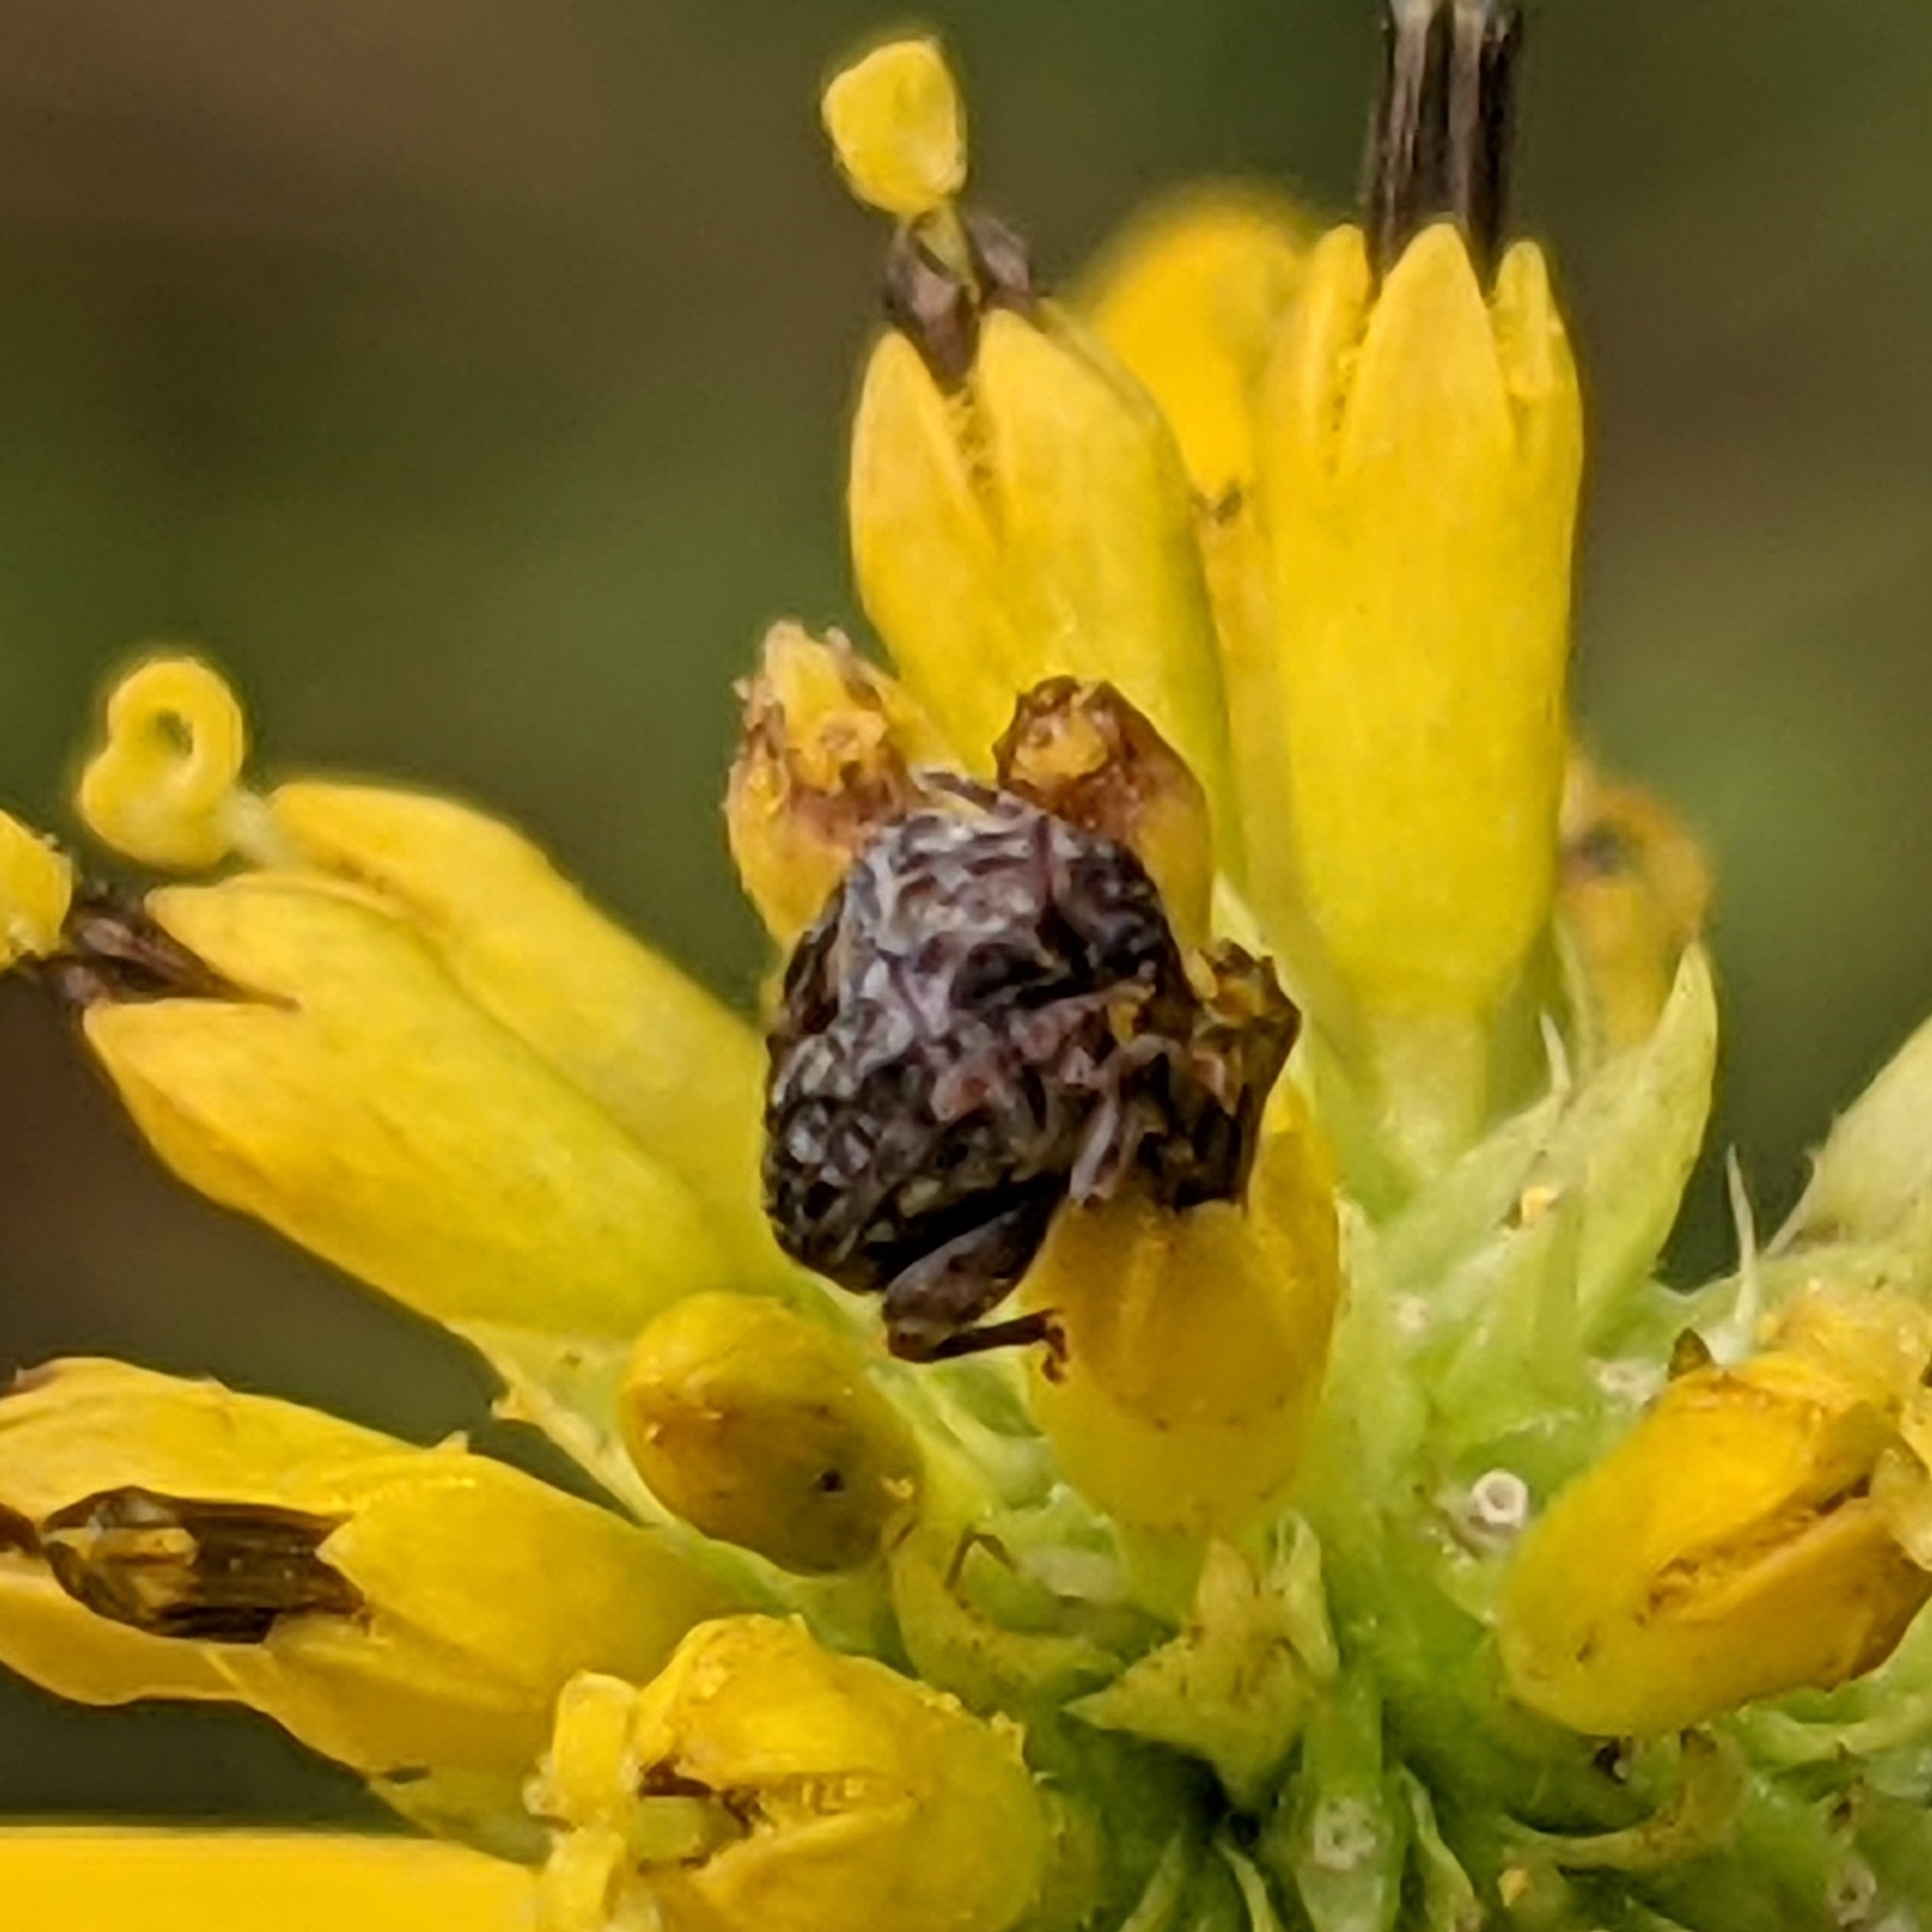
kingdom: Animalia
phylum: Arthropoda
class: Insecta
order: Coleoptera
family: Chrysomelidae
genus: Gibbobruchus
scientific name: Gibbobruchus mimus
